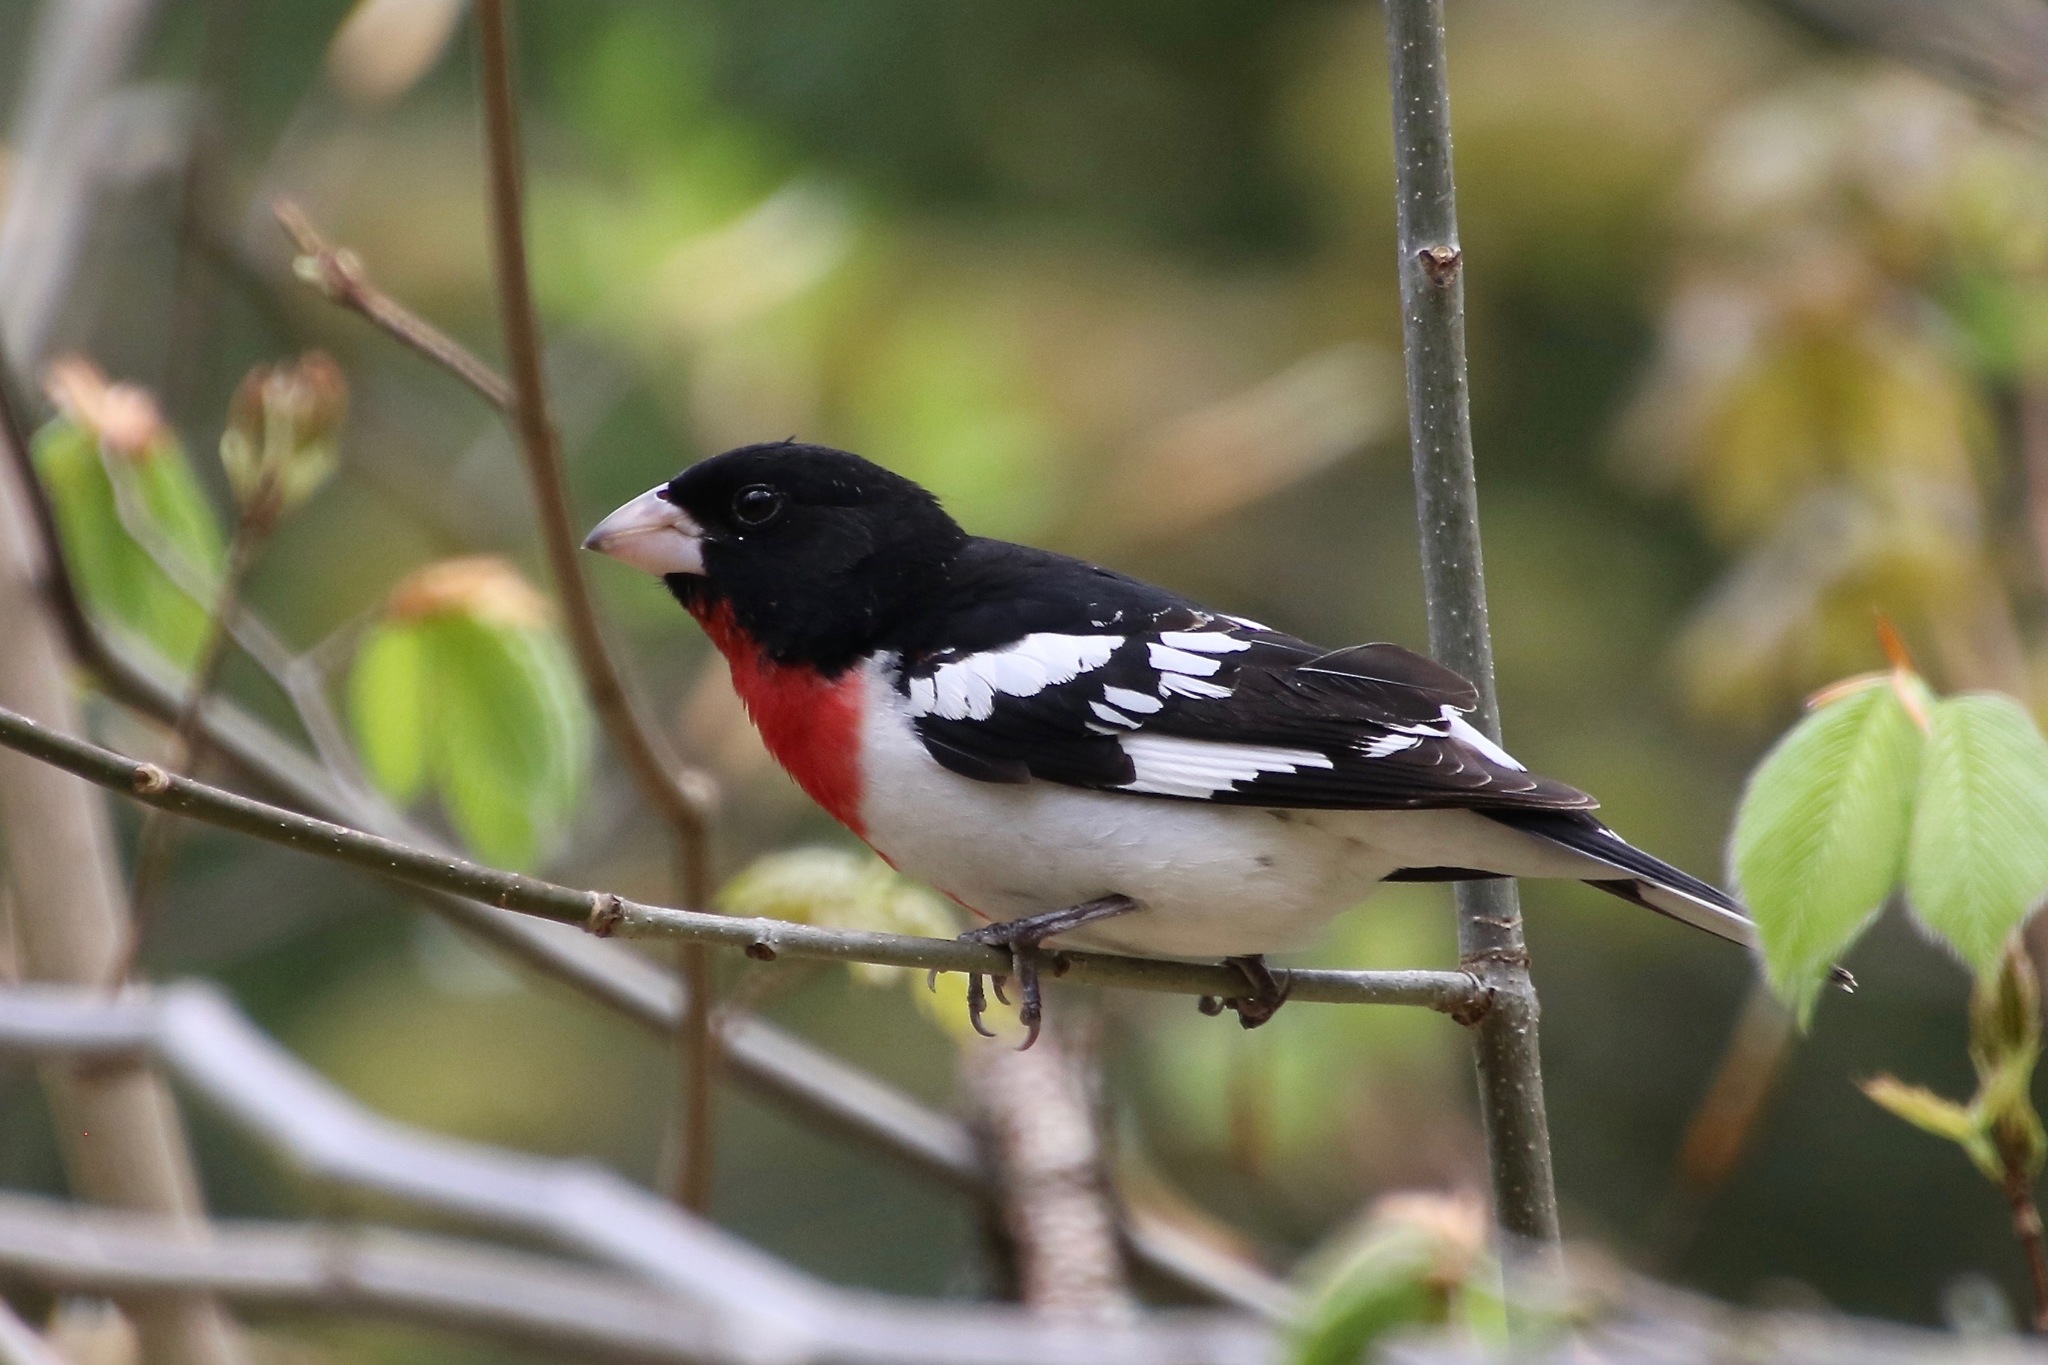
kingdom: Animalia
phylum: Chordata
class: Aves
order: Passeriformes
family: Cardinalidae
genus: Pheucticus
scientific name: Pheucticus ludovicianus
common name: Rose-breasted grosbeak
